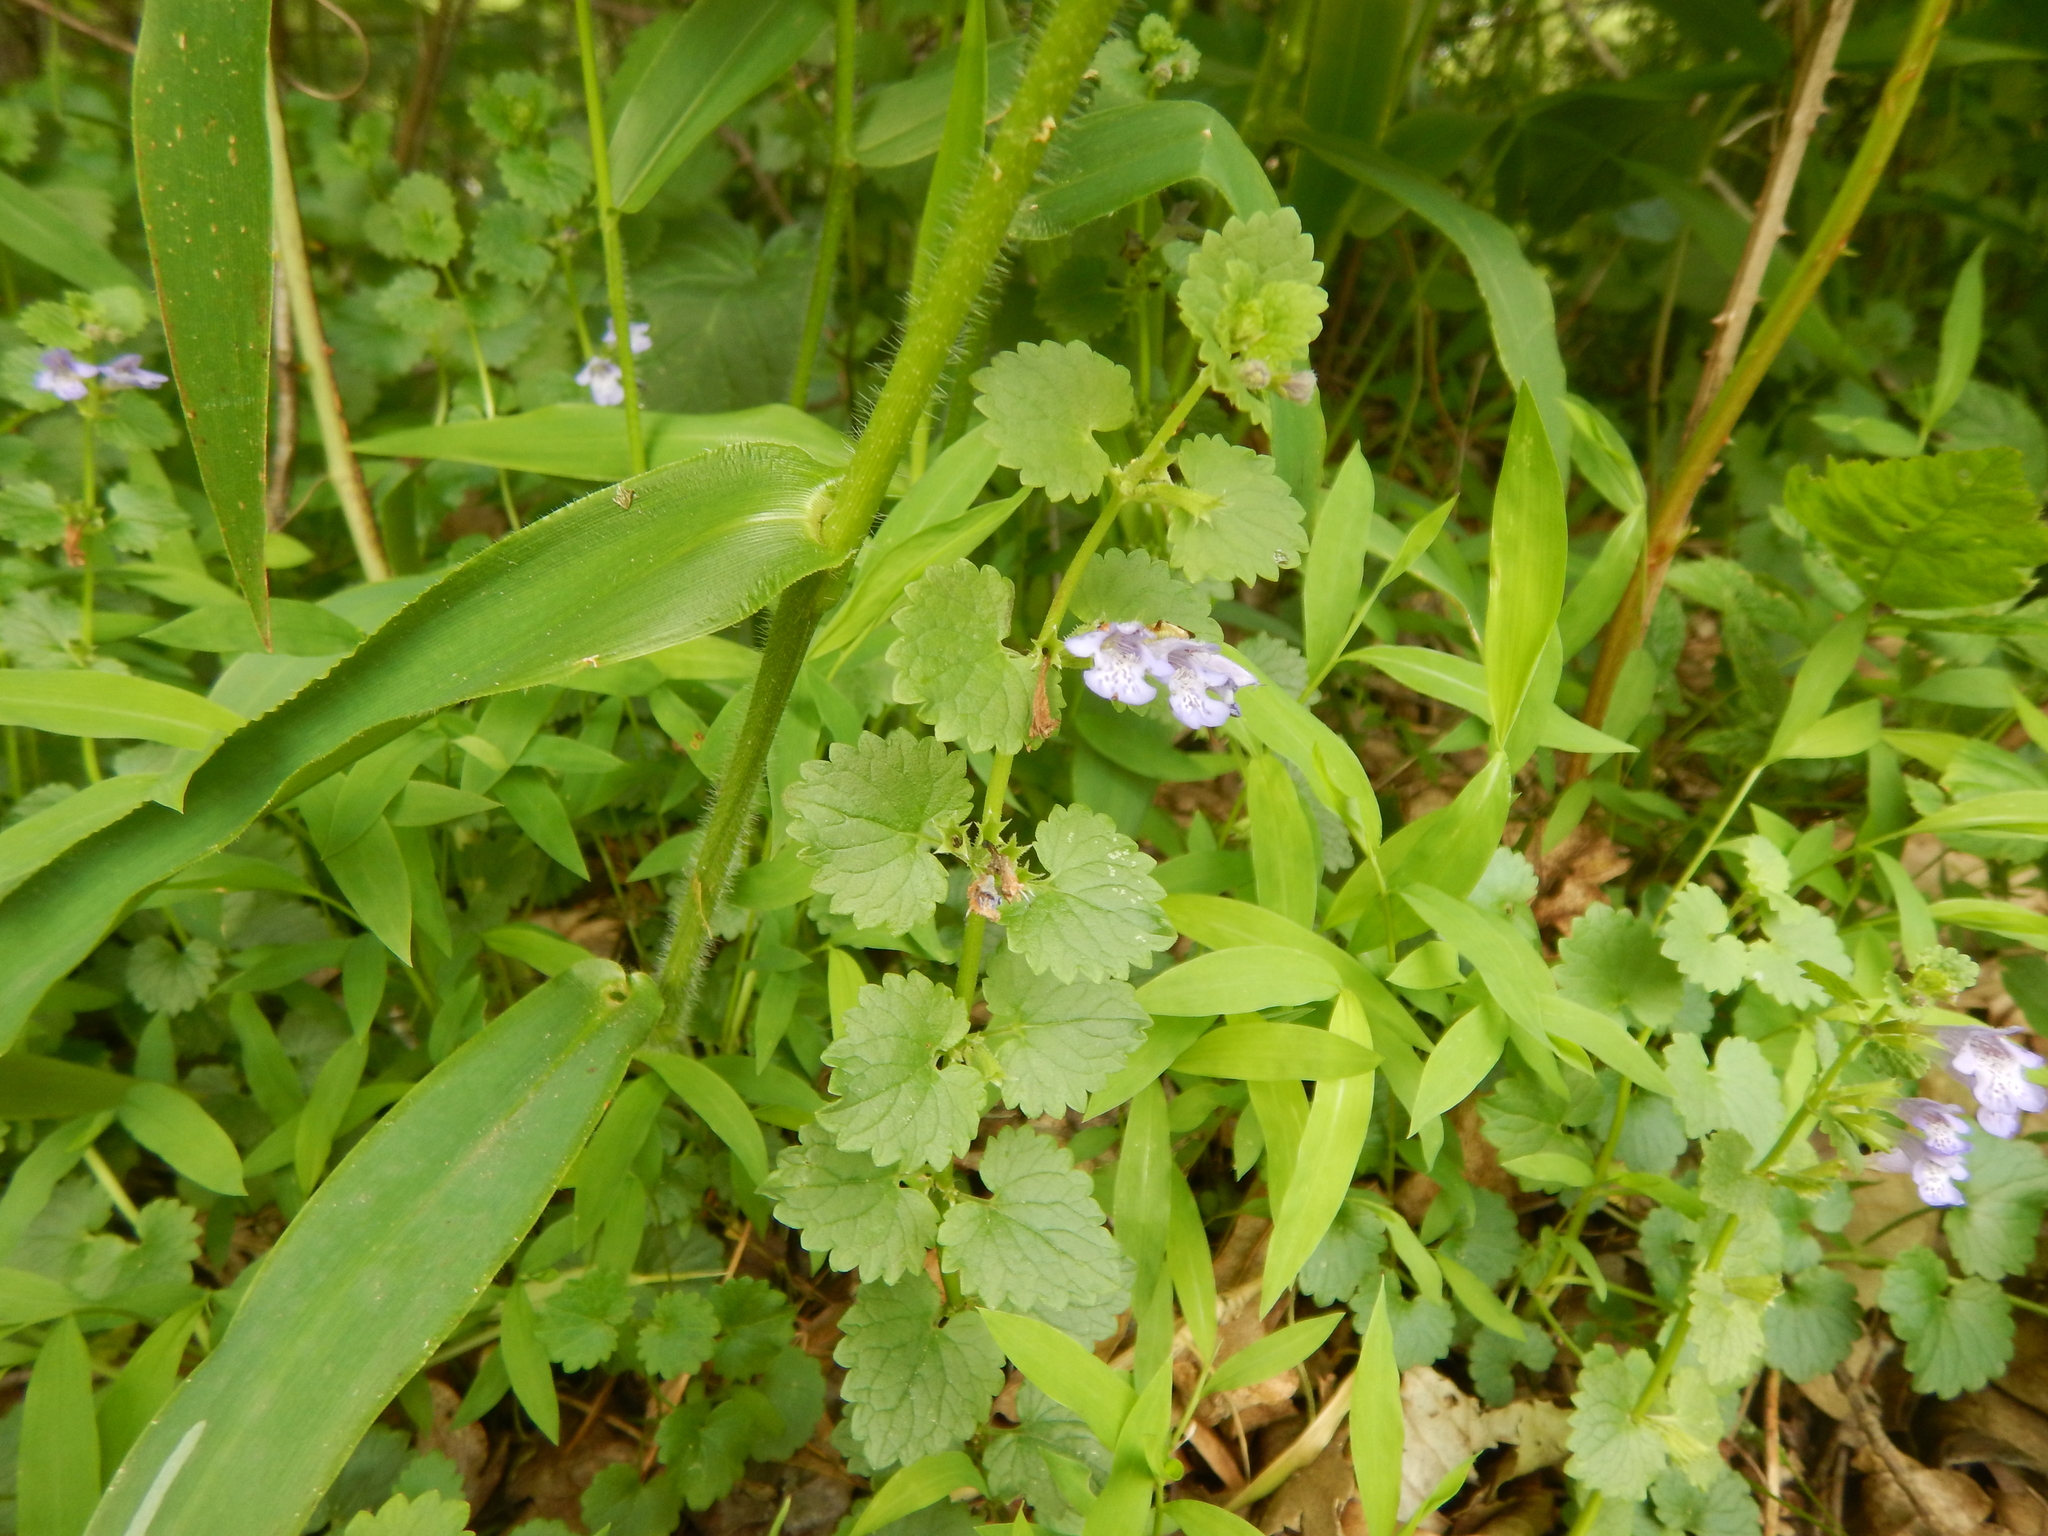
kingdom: Plantae
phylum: Tracheophyta
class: Magnoliopsida
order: Lamiales
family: Lamiaceae
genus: Glechoma
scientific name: Glechoma hederacea
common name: Ground ivy
